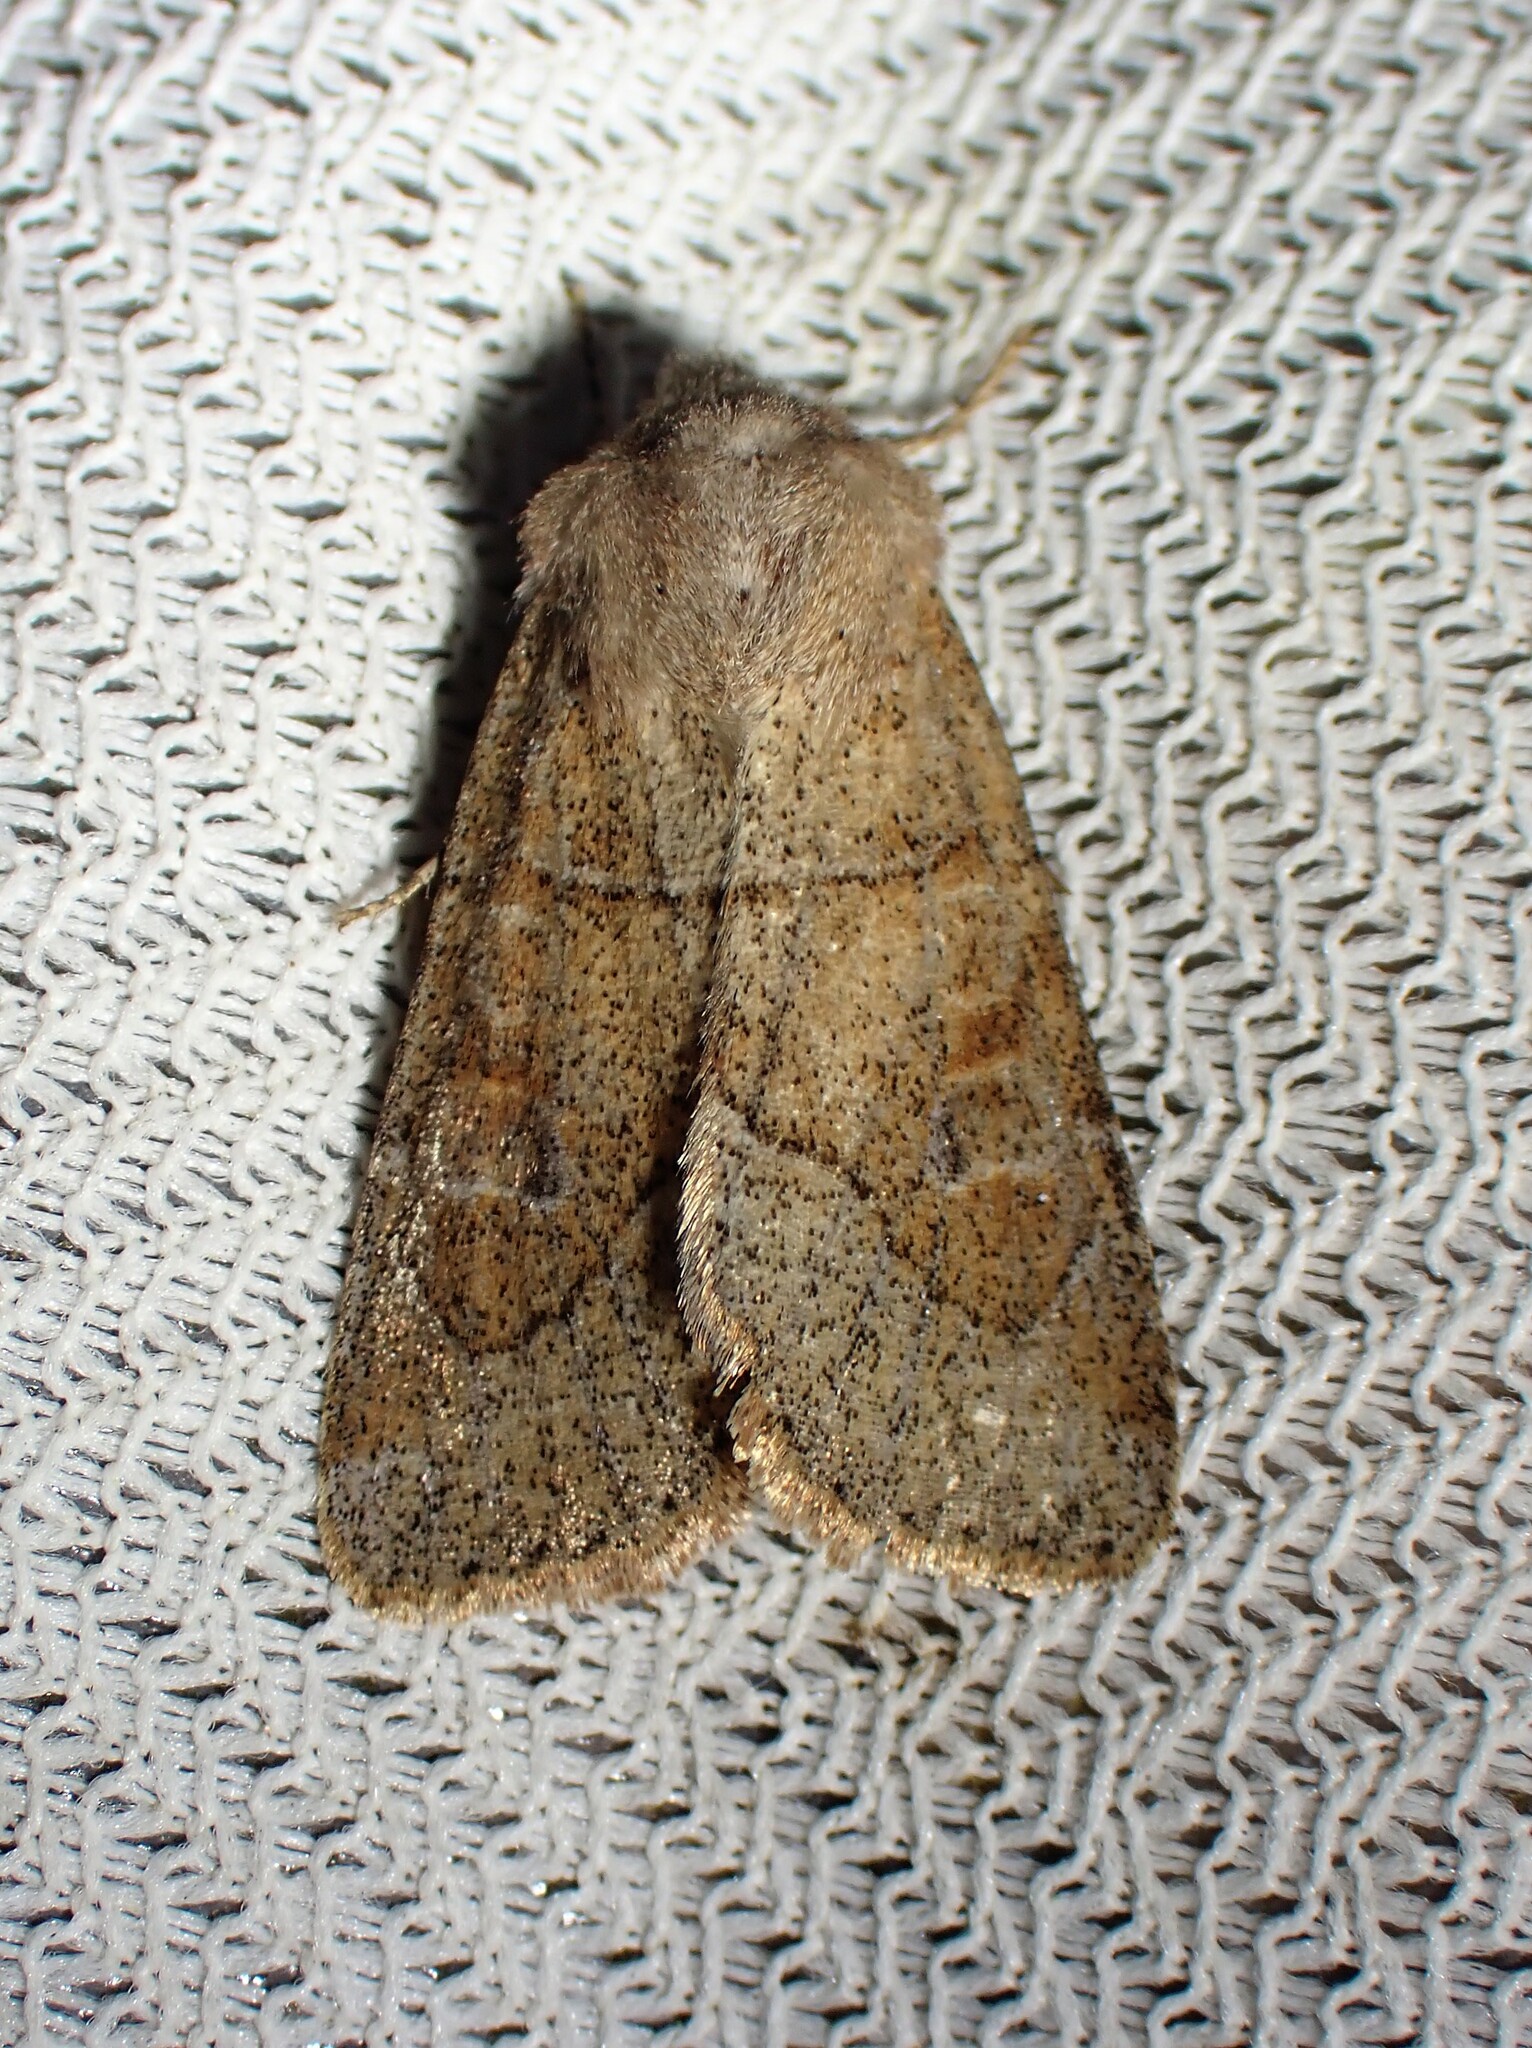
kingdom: Animalia
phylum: Arthropoda
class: Insecta
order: Lepidoptera
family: Noctuidae
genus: Crocigrapha
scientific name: Crocigrapha normani
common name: Norman's quaker
